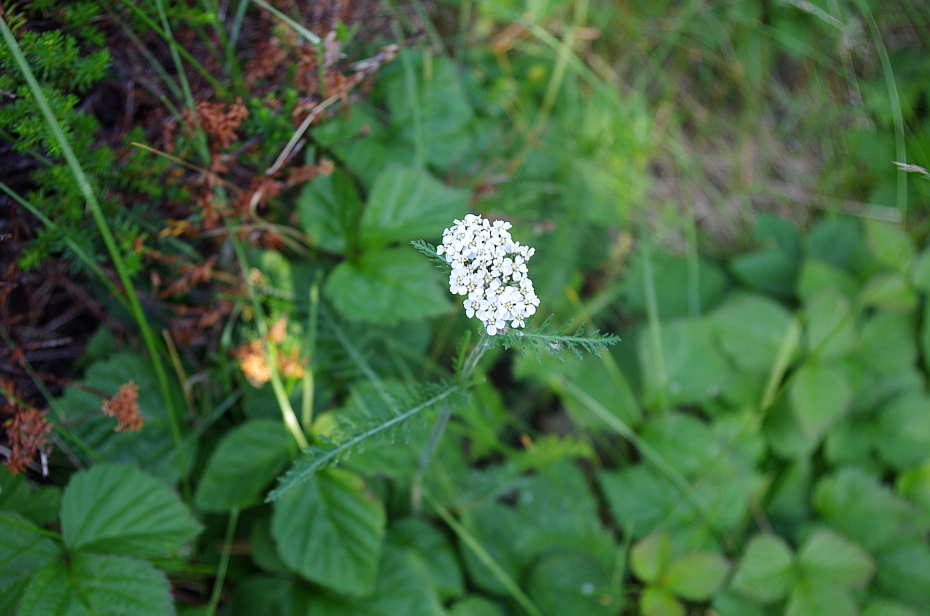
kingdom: Plantae
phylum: Tracheophyta
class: Magnoliopsida
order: Asterales
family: Asteraceae
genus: Achillea
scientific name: Achillea millefolium
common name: Yarrow
